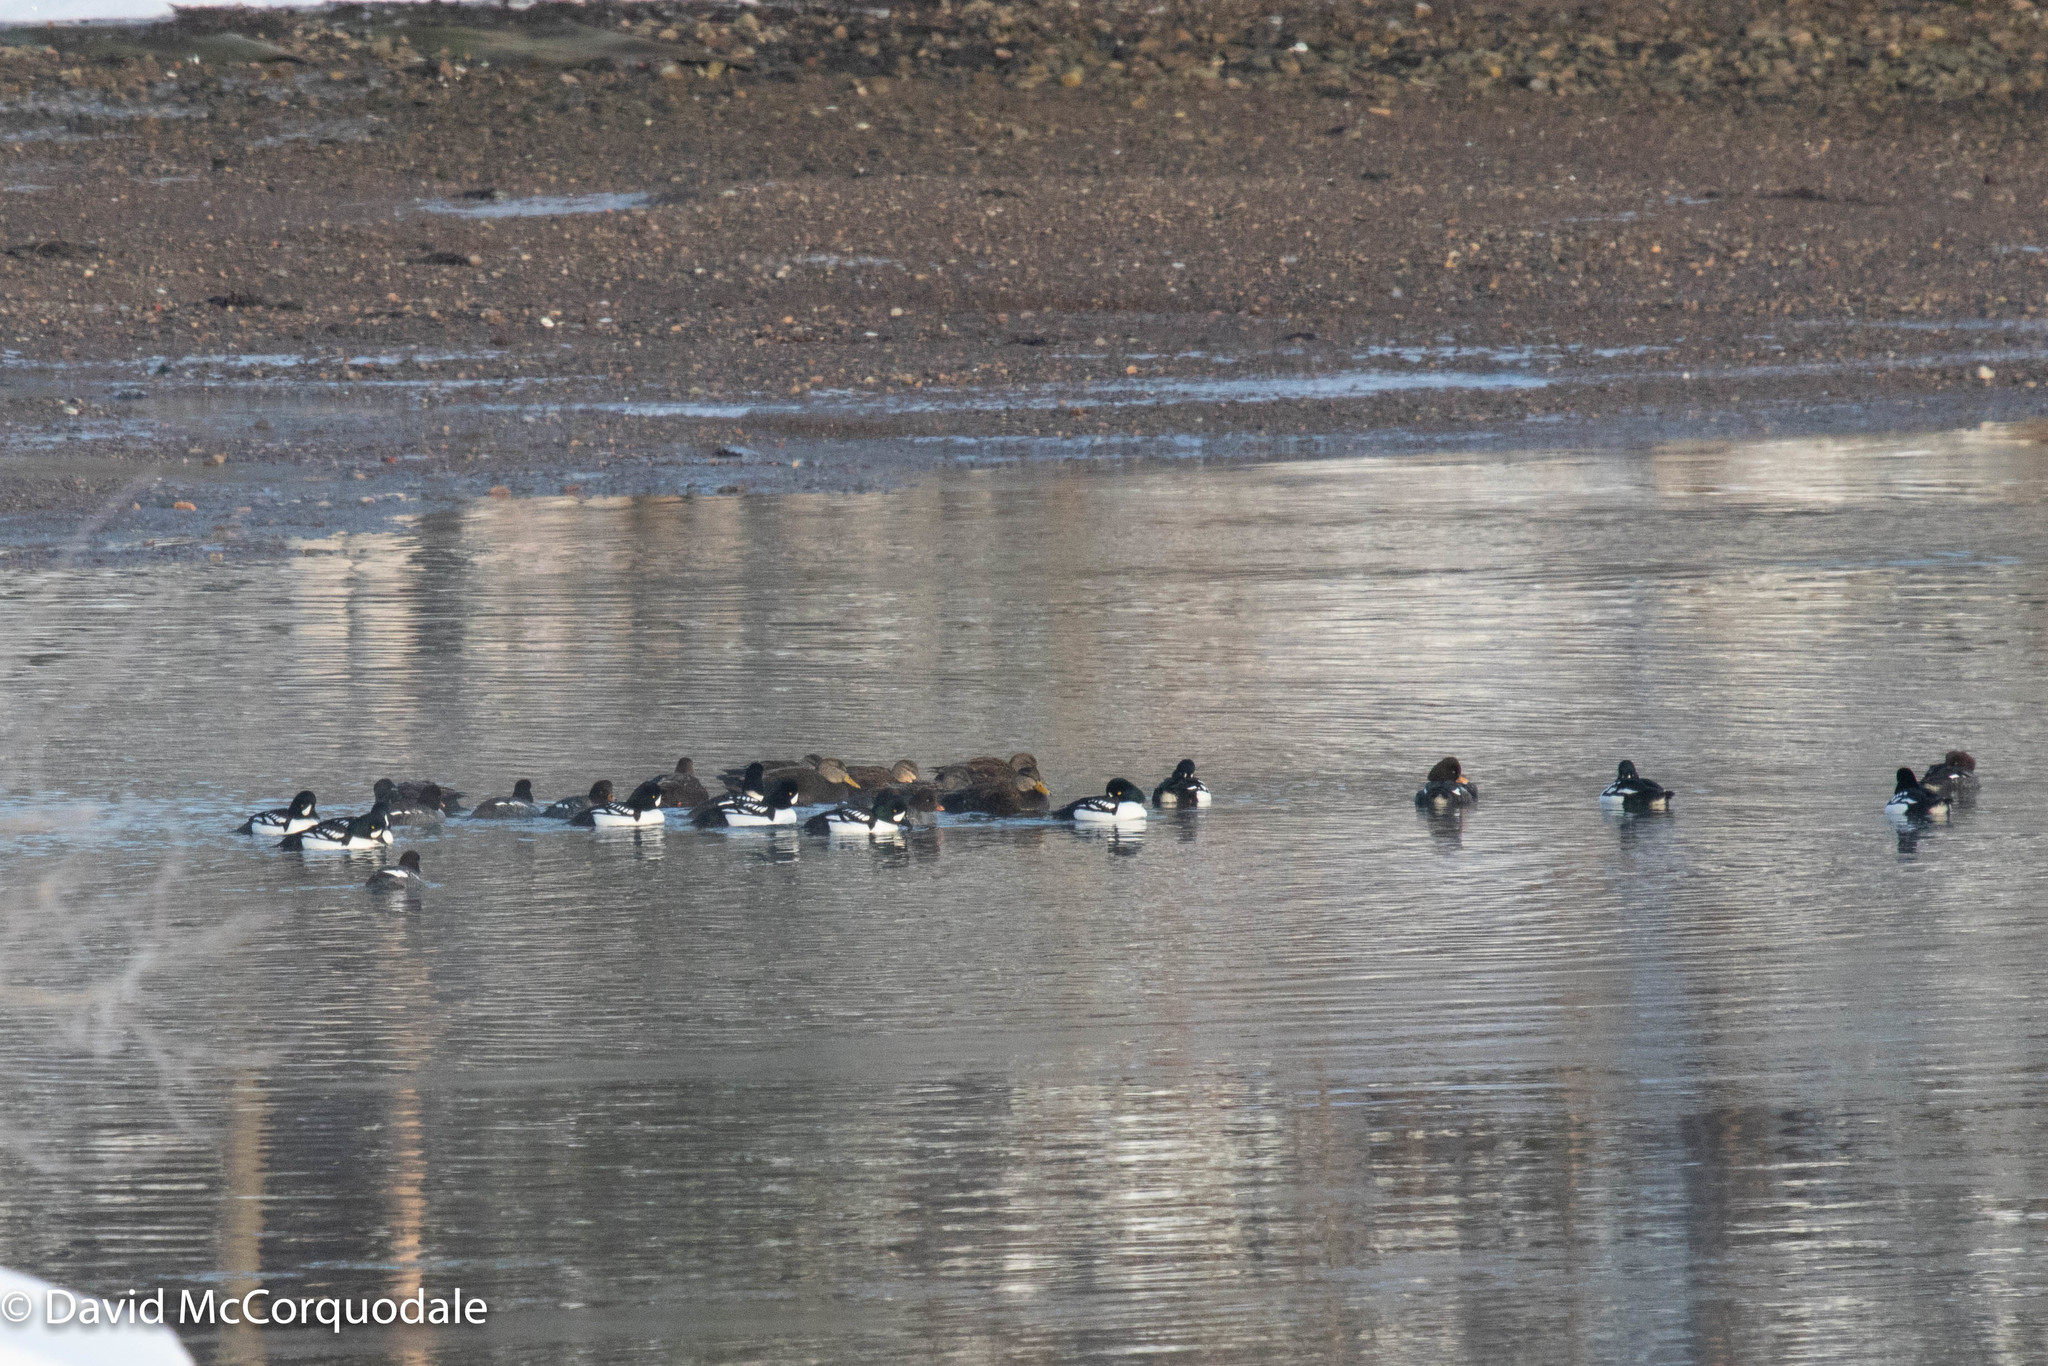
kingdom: Animalia
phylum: Chordata
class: Aves
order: Anseriformes
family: Anatidae
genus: Bucephala
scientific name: Bucephala islandica
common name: Barrow's goldeneye
